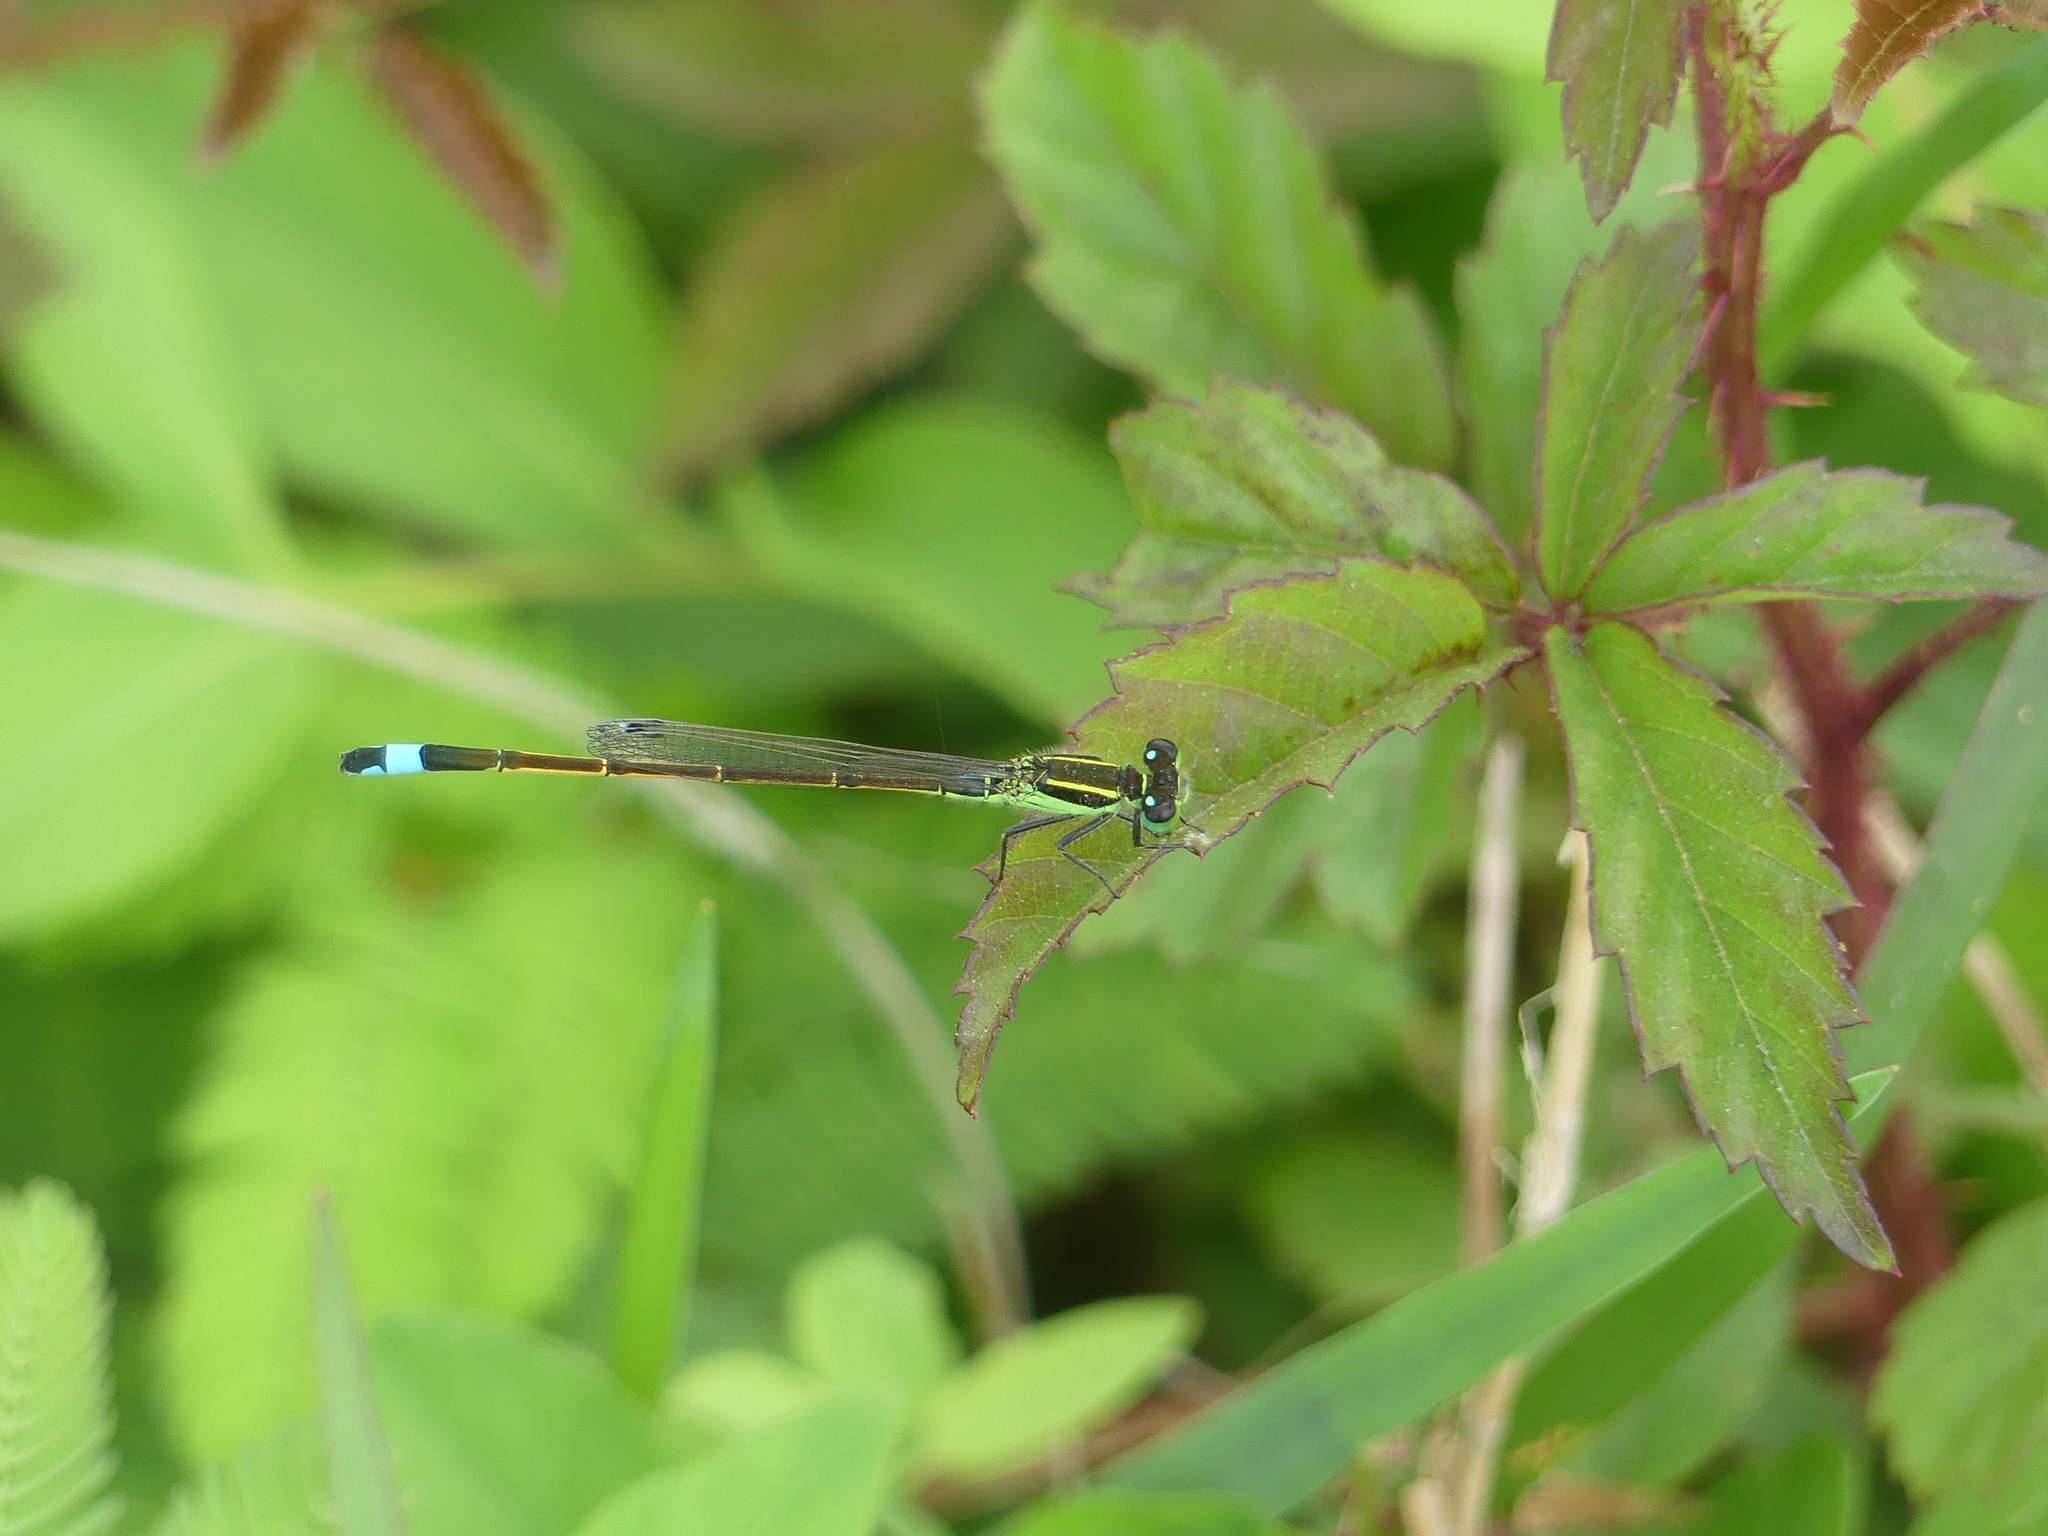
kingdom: Animalia
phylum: Arthropoda
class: Insecta
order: Odonata
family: Coenagrionidae
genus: Ischnura
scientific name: Ischnura ramburii
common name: Rambur's forktail
